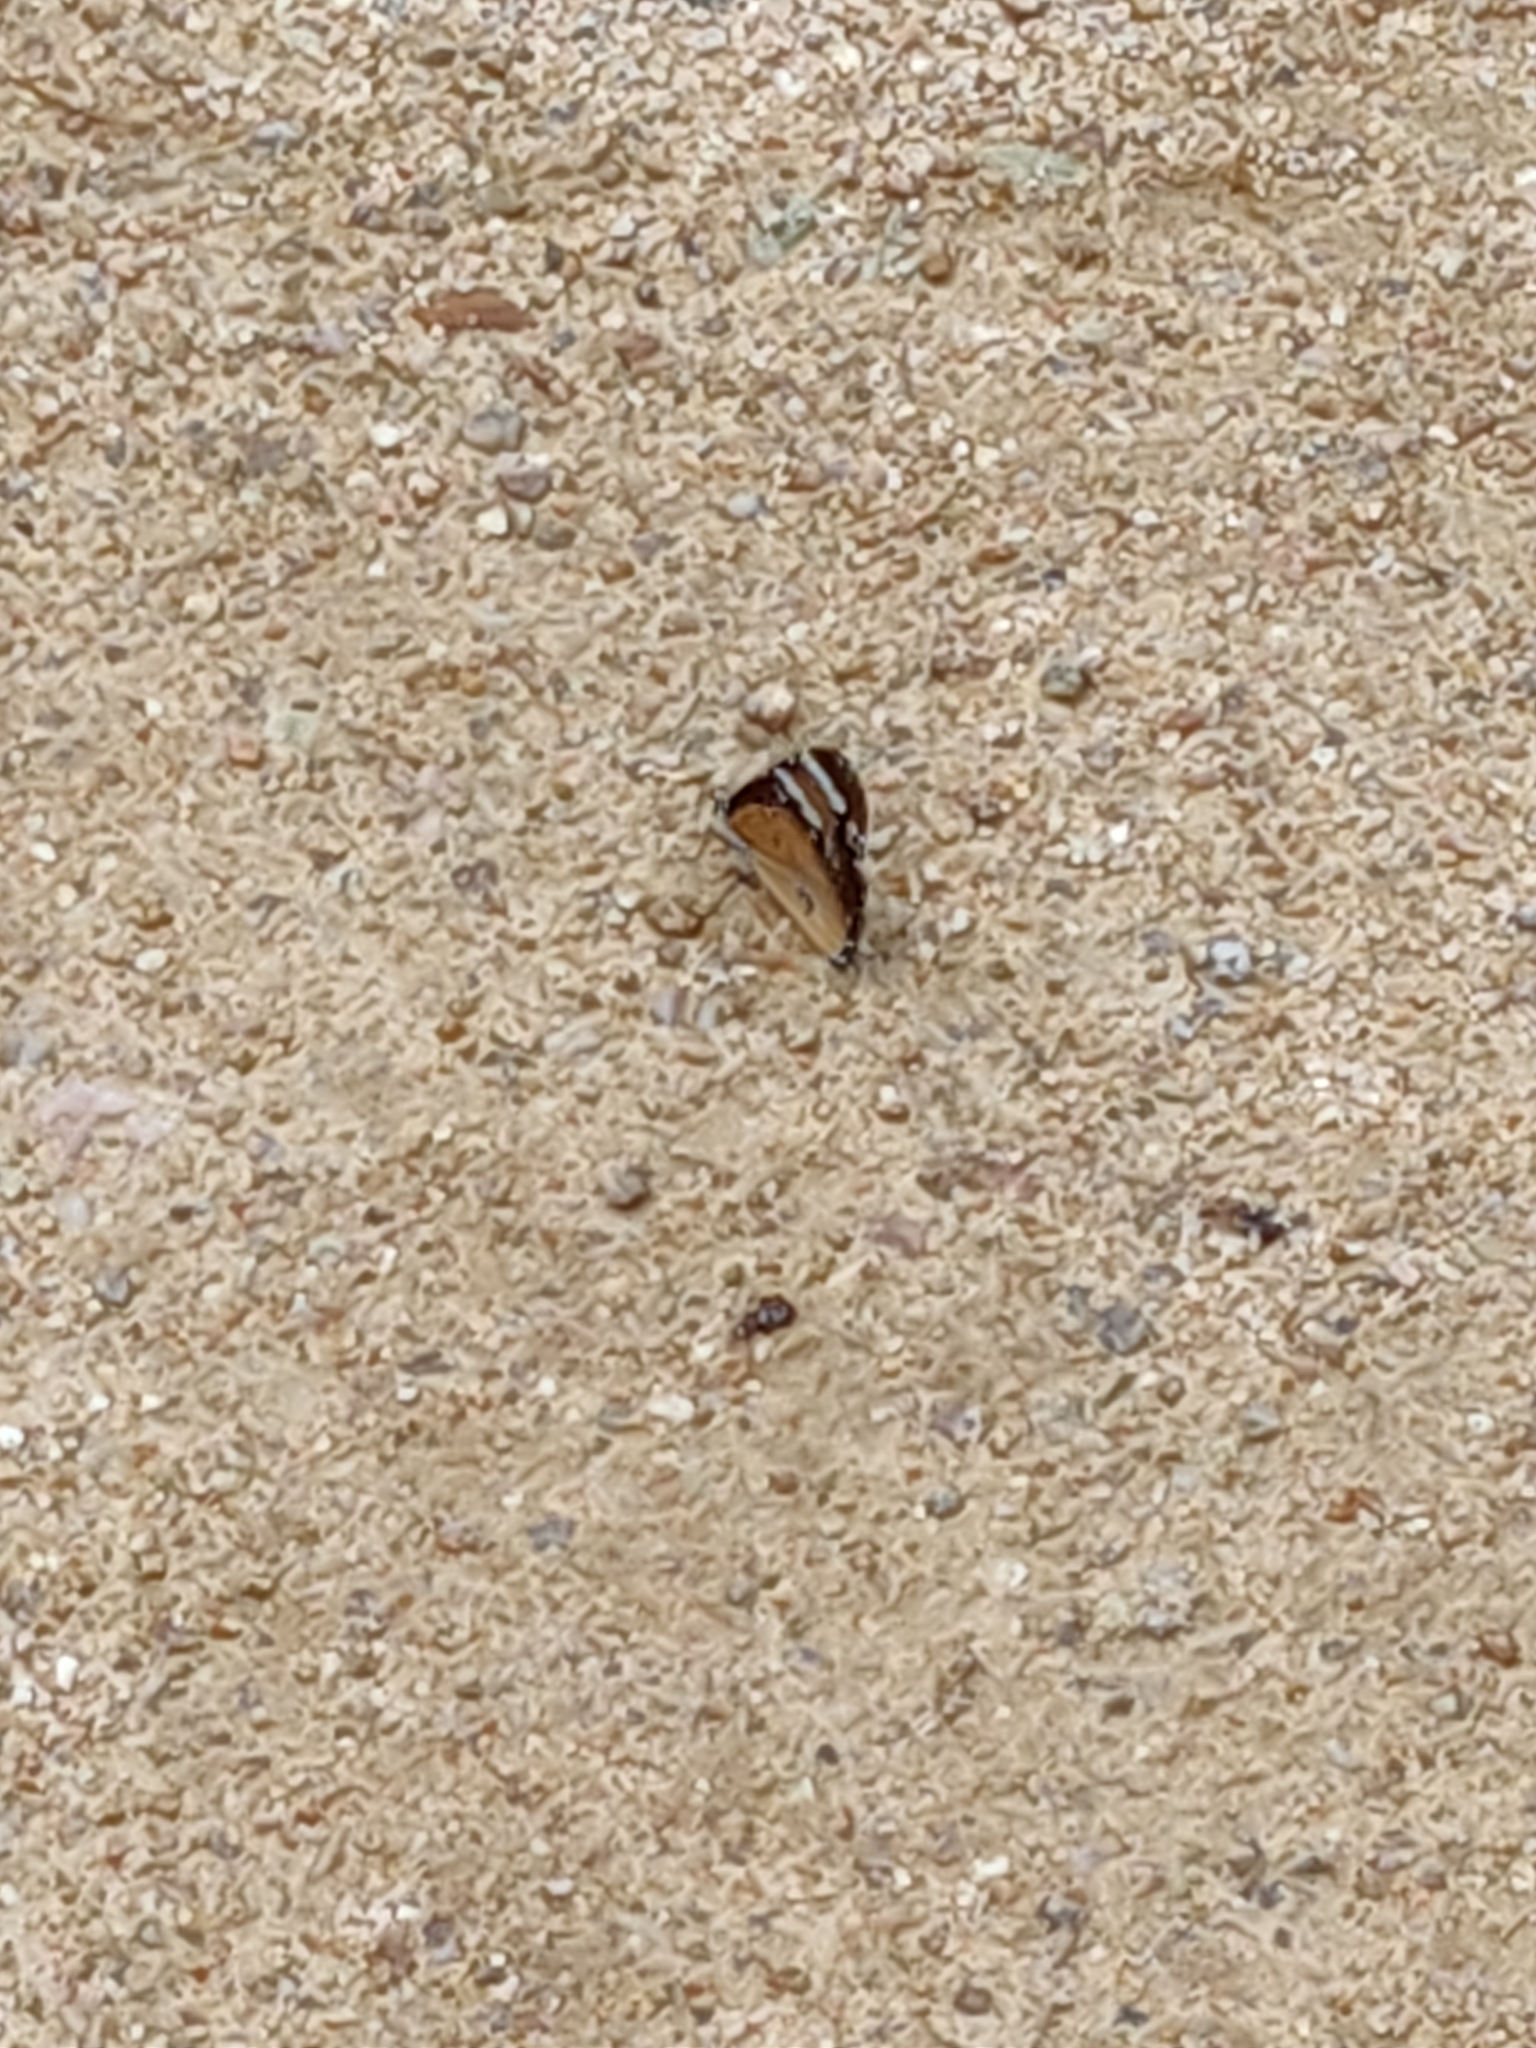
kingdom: Animalia
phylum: Arthropoda
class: Insecta
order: Lepidoptera
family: Nymphalidae
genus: Danaus
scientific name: Danaus chrysippus
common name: Plain tiger
